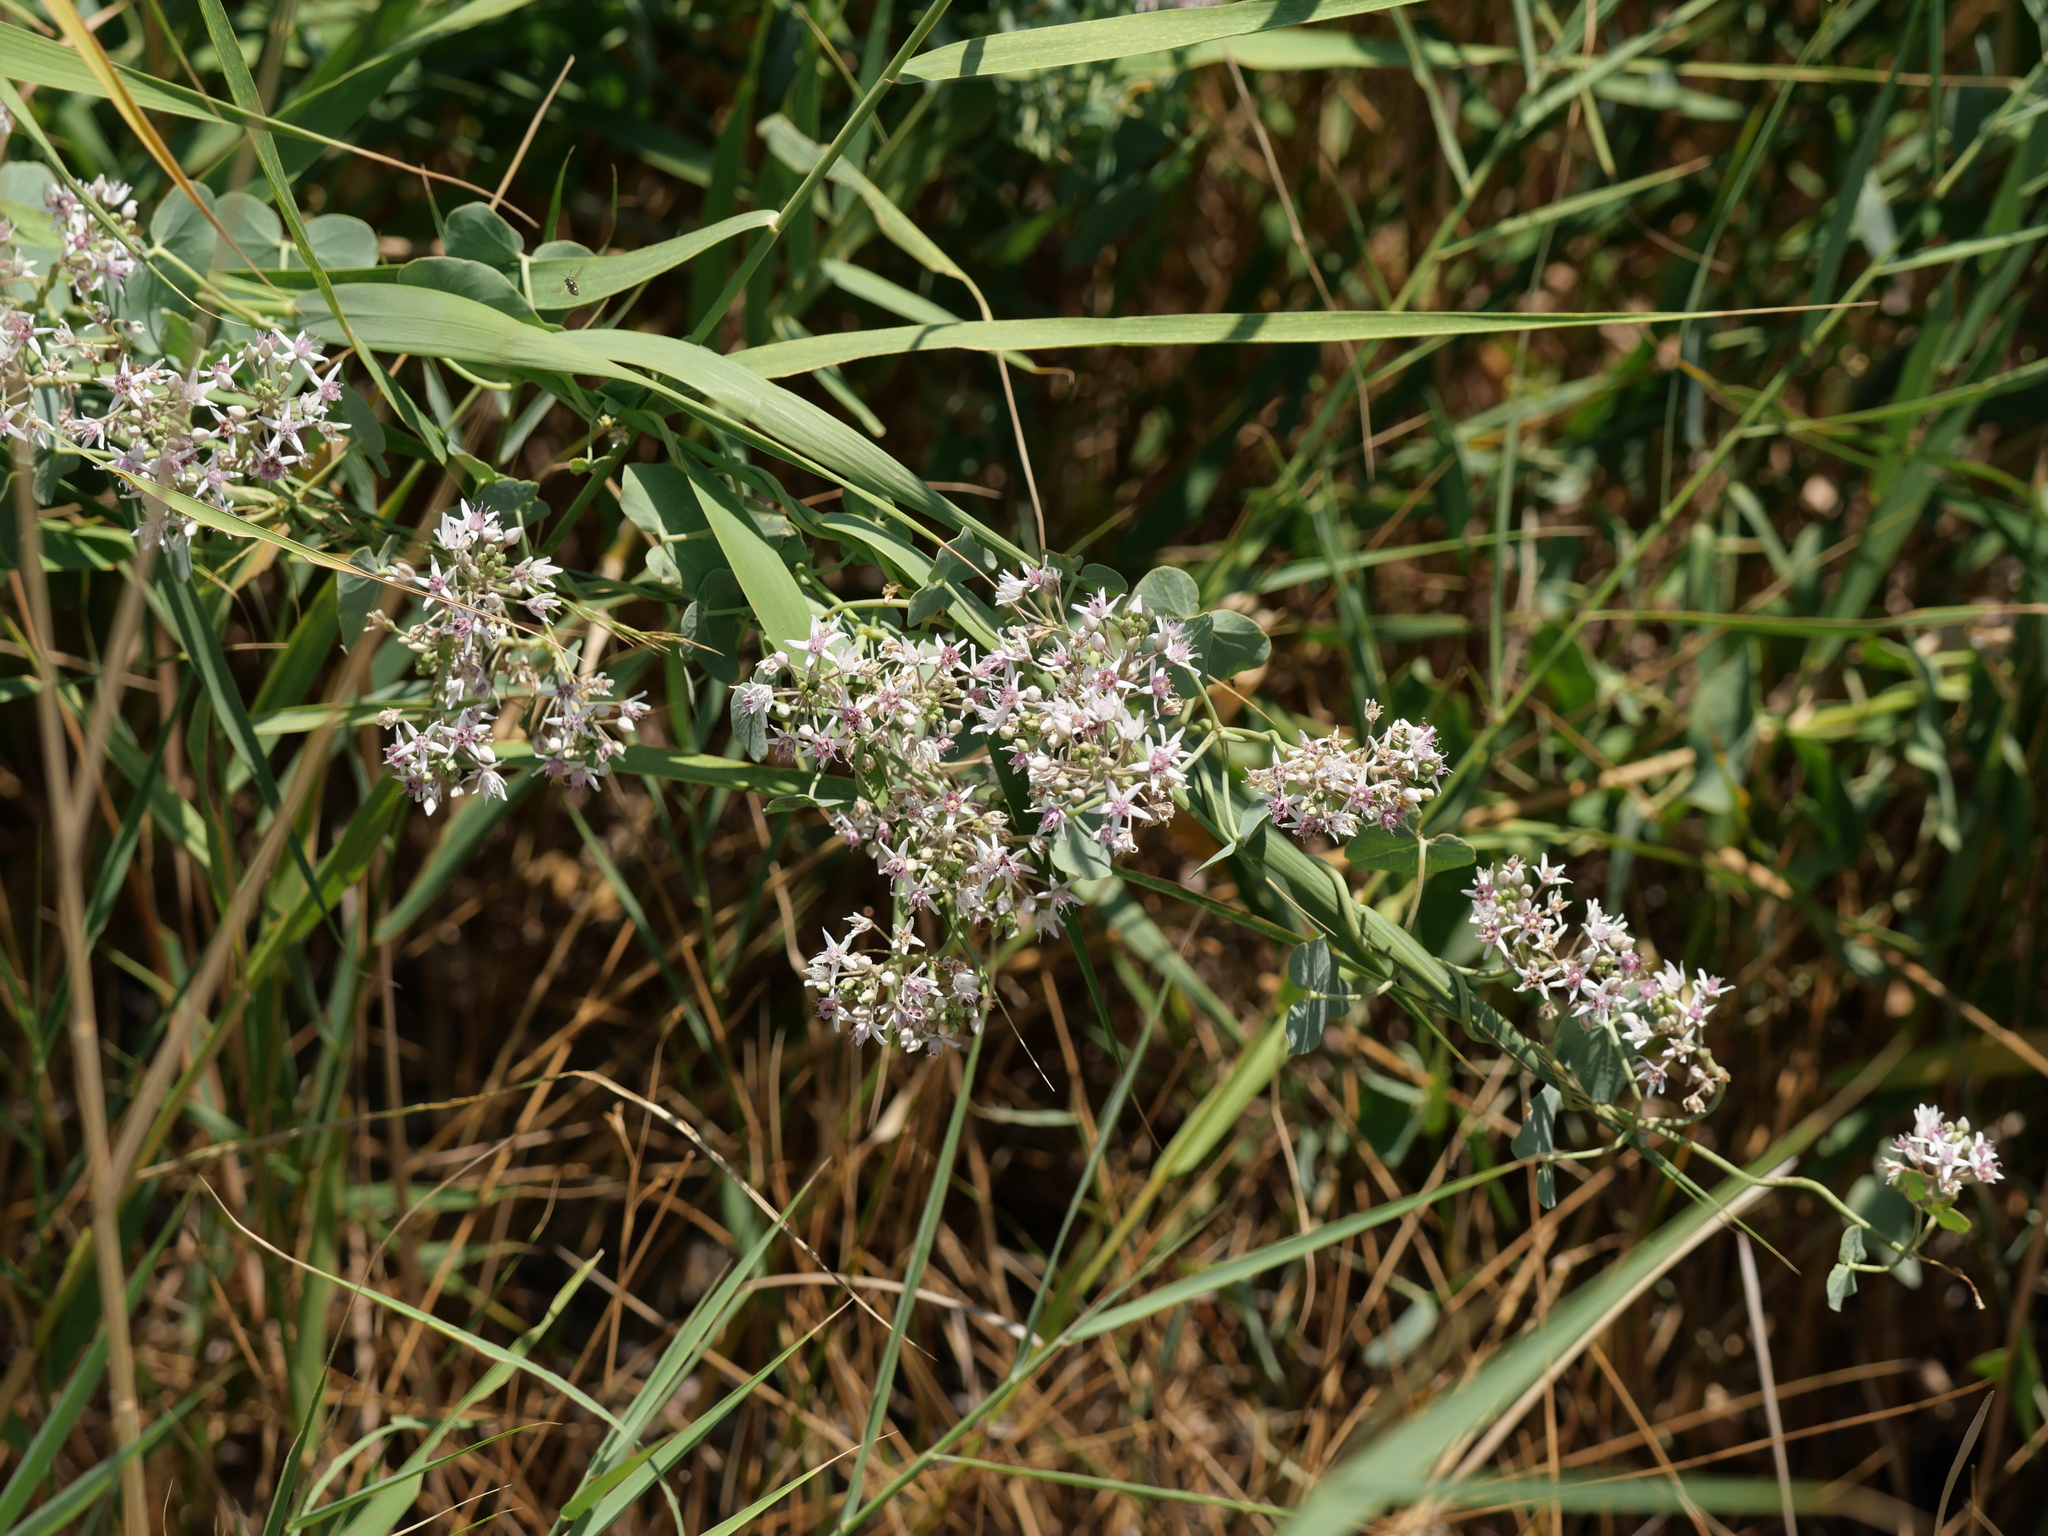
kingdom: Plantae
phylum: Tracheophyta
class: Magnoliopsida
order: Gentianales
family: Apocynaceae
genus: Cynanchum
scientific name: Cynanchum acutum
